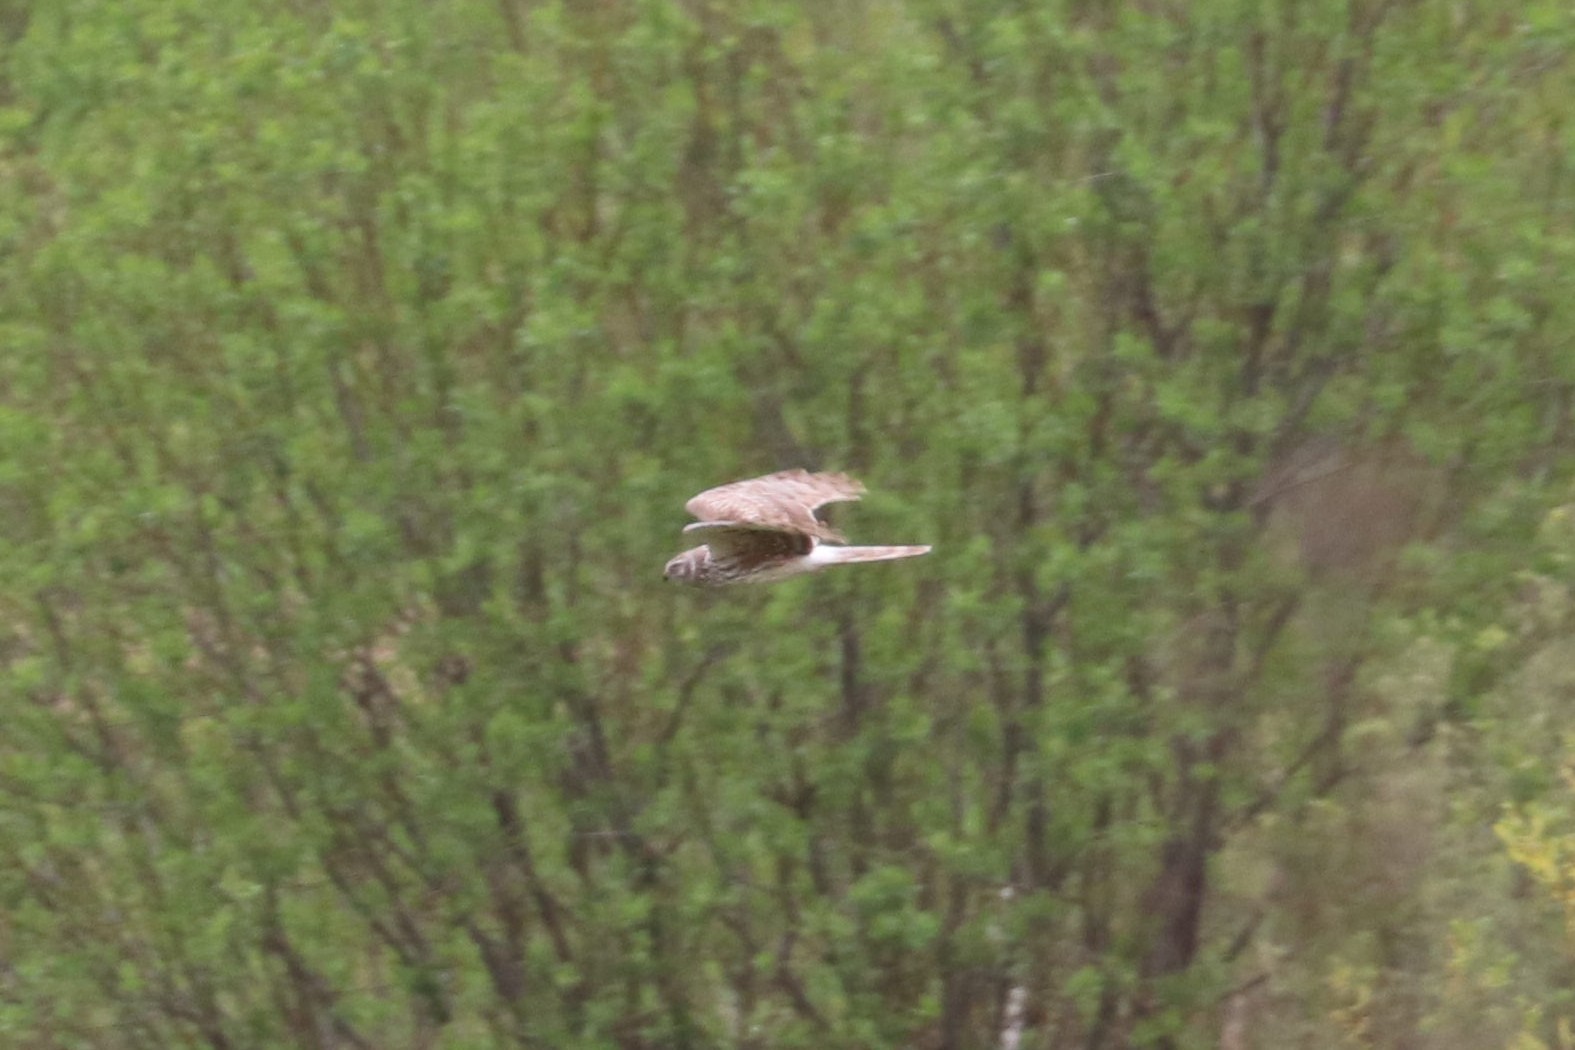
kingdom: Animalia
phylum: Chordata
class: Aves
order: Accipitriformes
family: Accipitridae
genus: Circus
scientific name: Circus cyaneus
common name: Hen harrier
